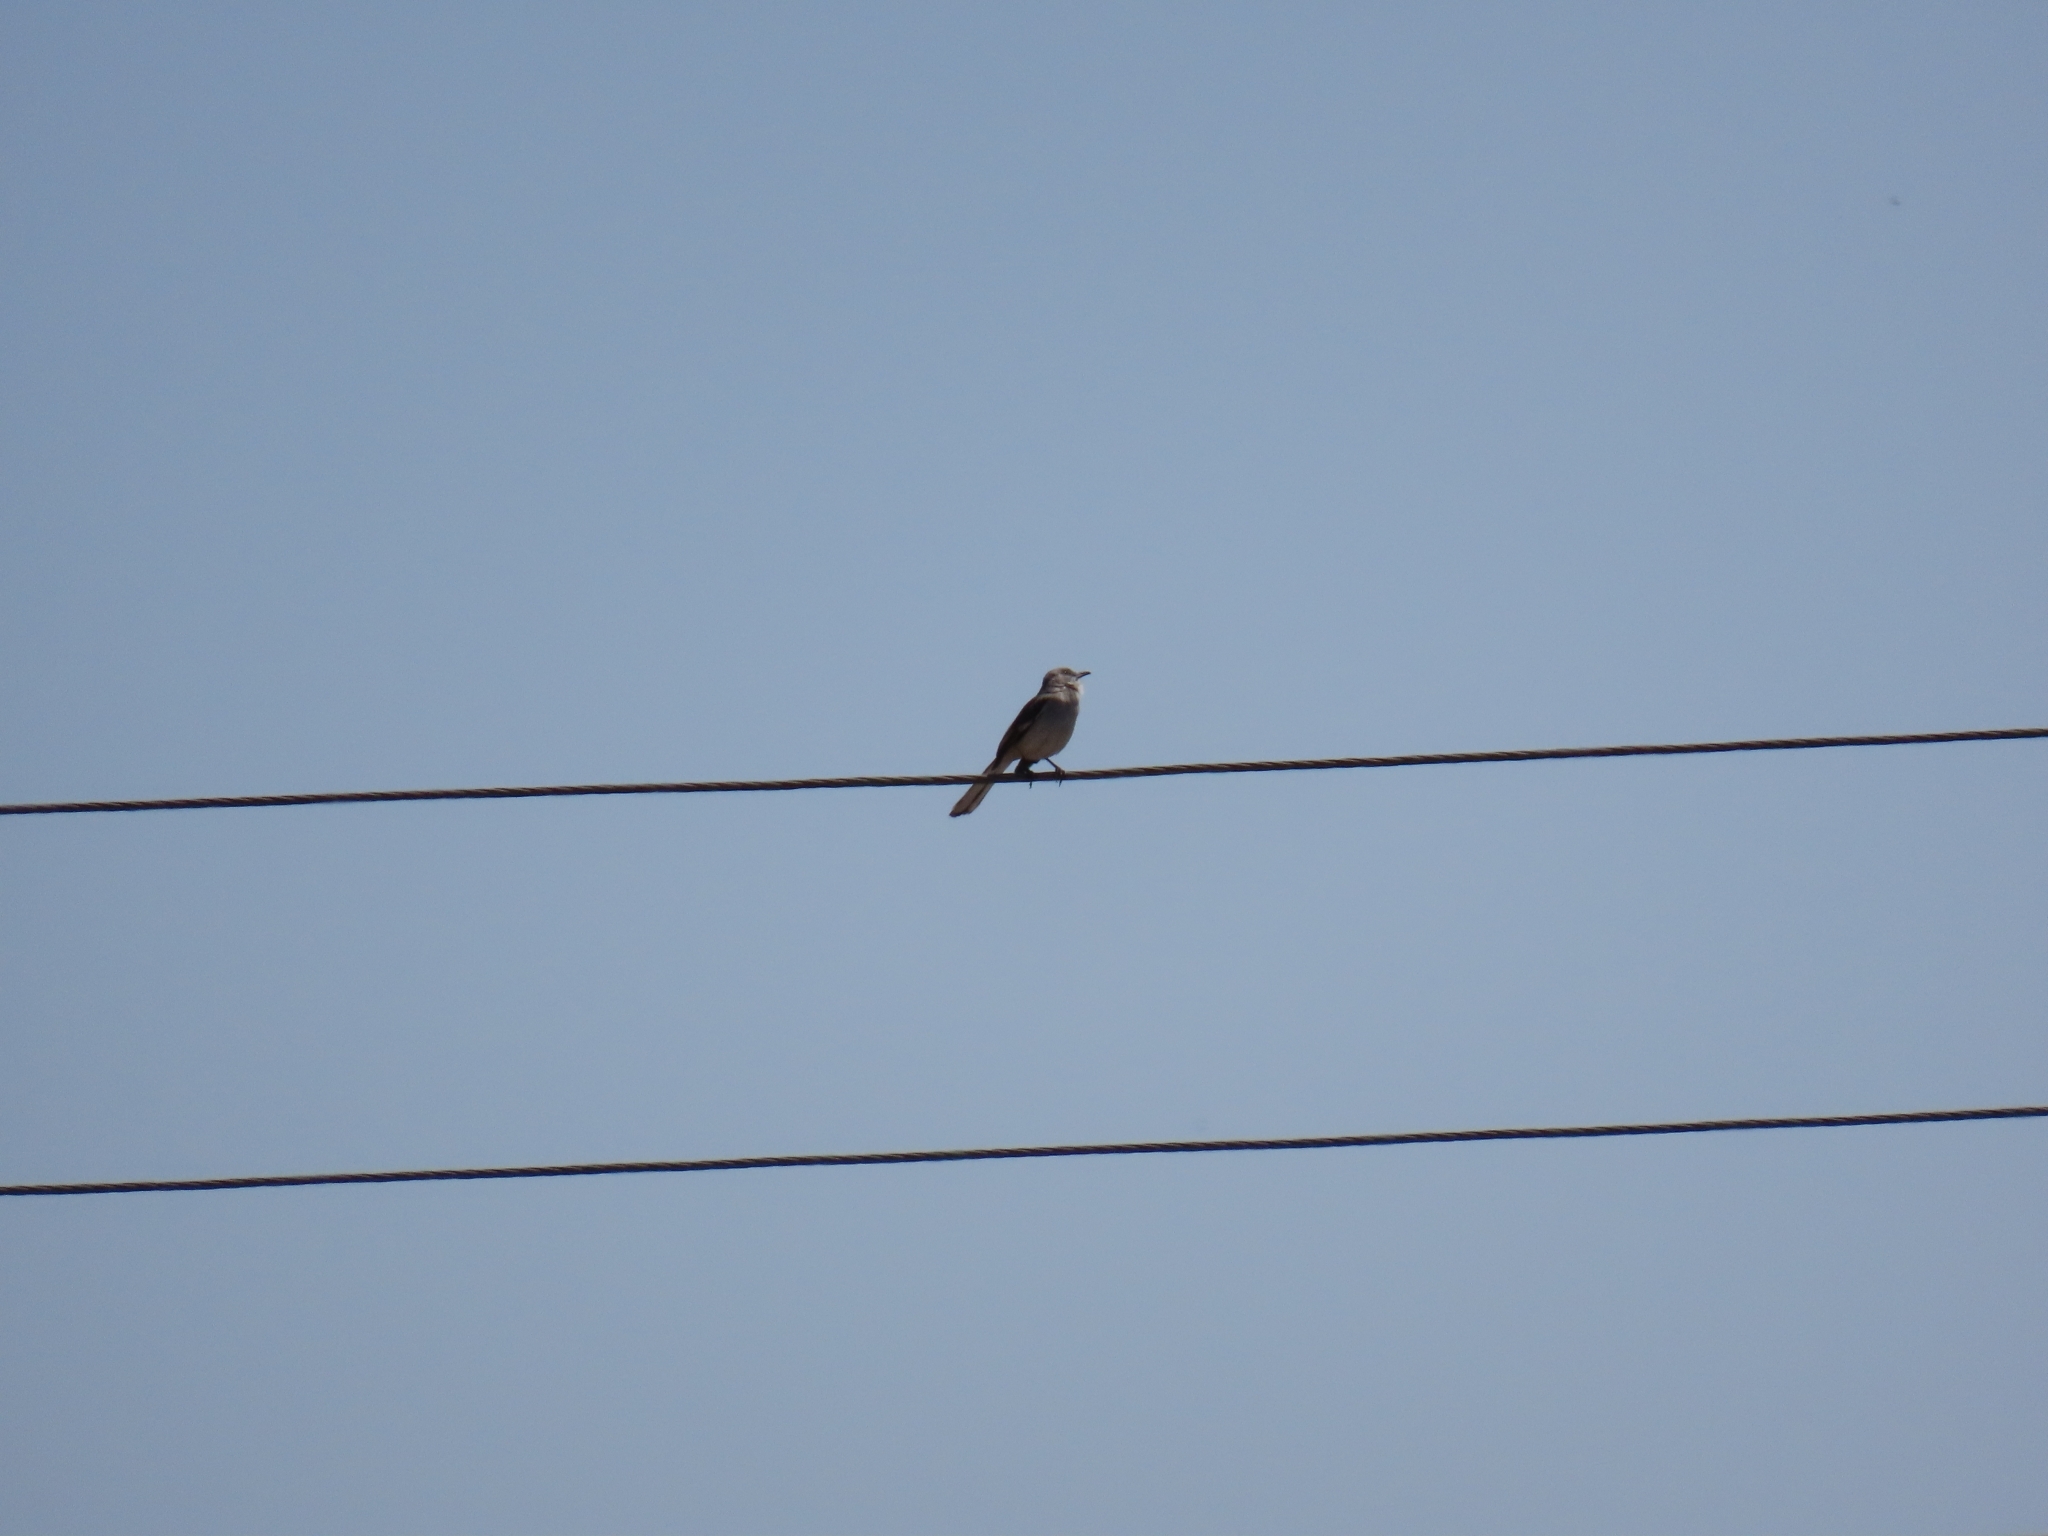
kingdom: Animalia
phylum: Chordata
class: Aves
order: Passeriformes
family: Mimidae
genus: Mimus
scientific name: Mimus polyglottos
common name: Northern mockingbird
